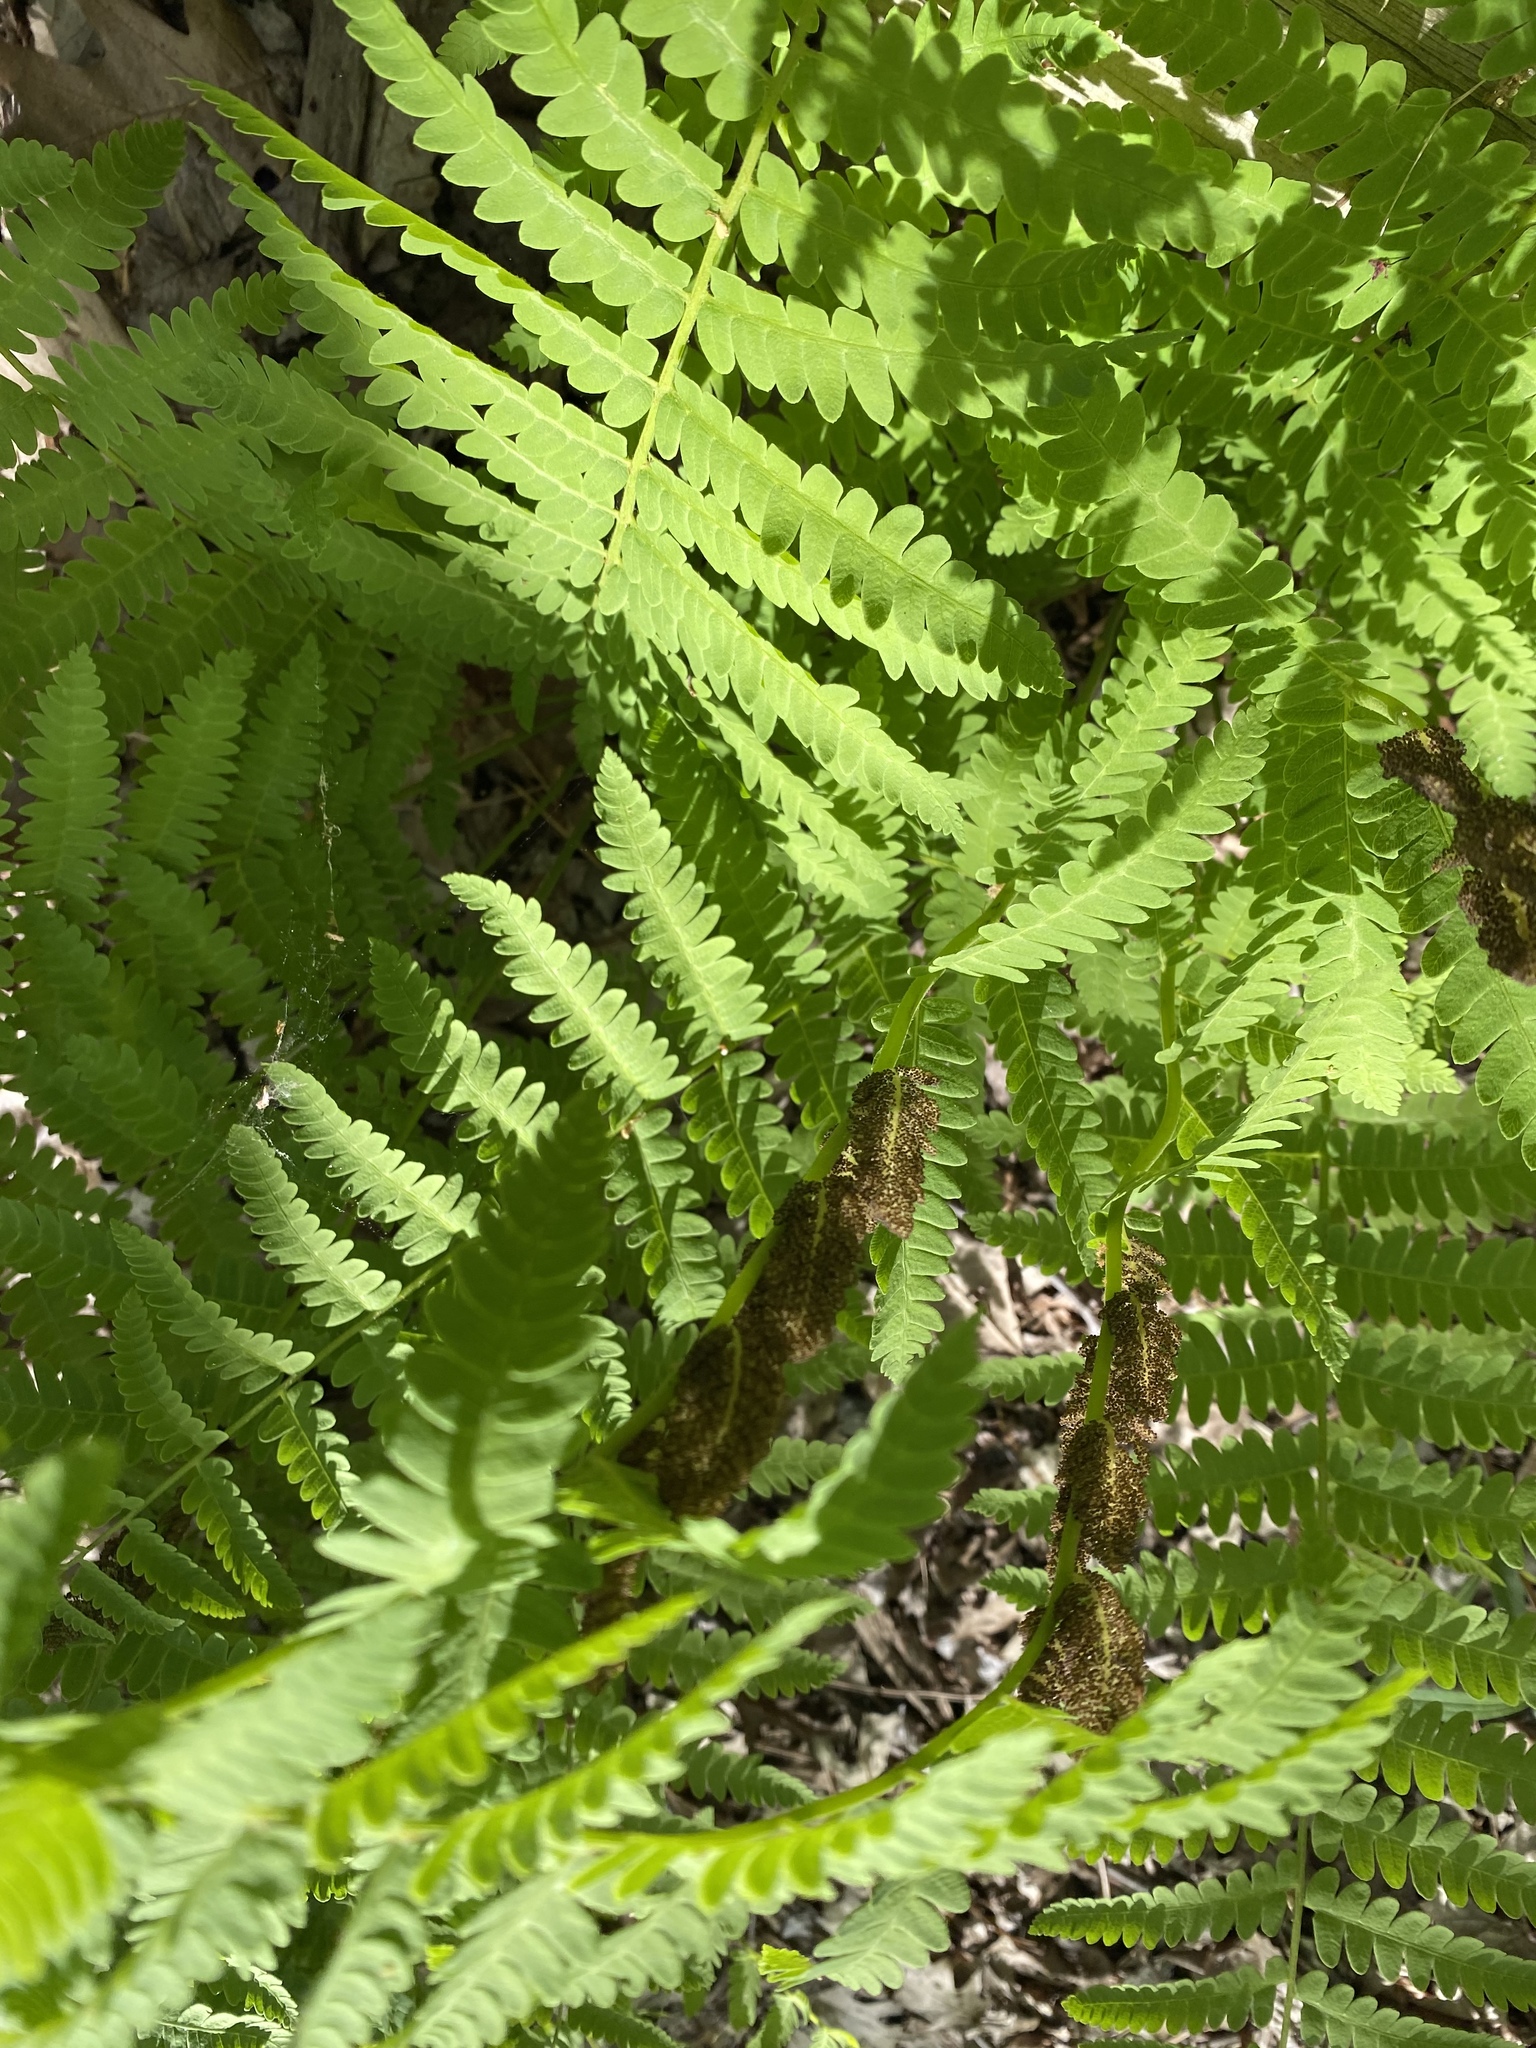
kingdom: Plantae
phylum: Tracheophyta
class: Polypodiopsida
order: Osmundales
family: Osmundaceae
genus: Claytosmunda
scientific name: Claytosmunda claytoniana
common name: Clayton's fern
